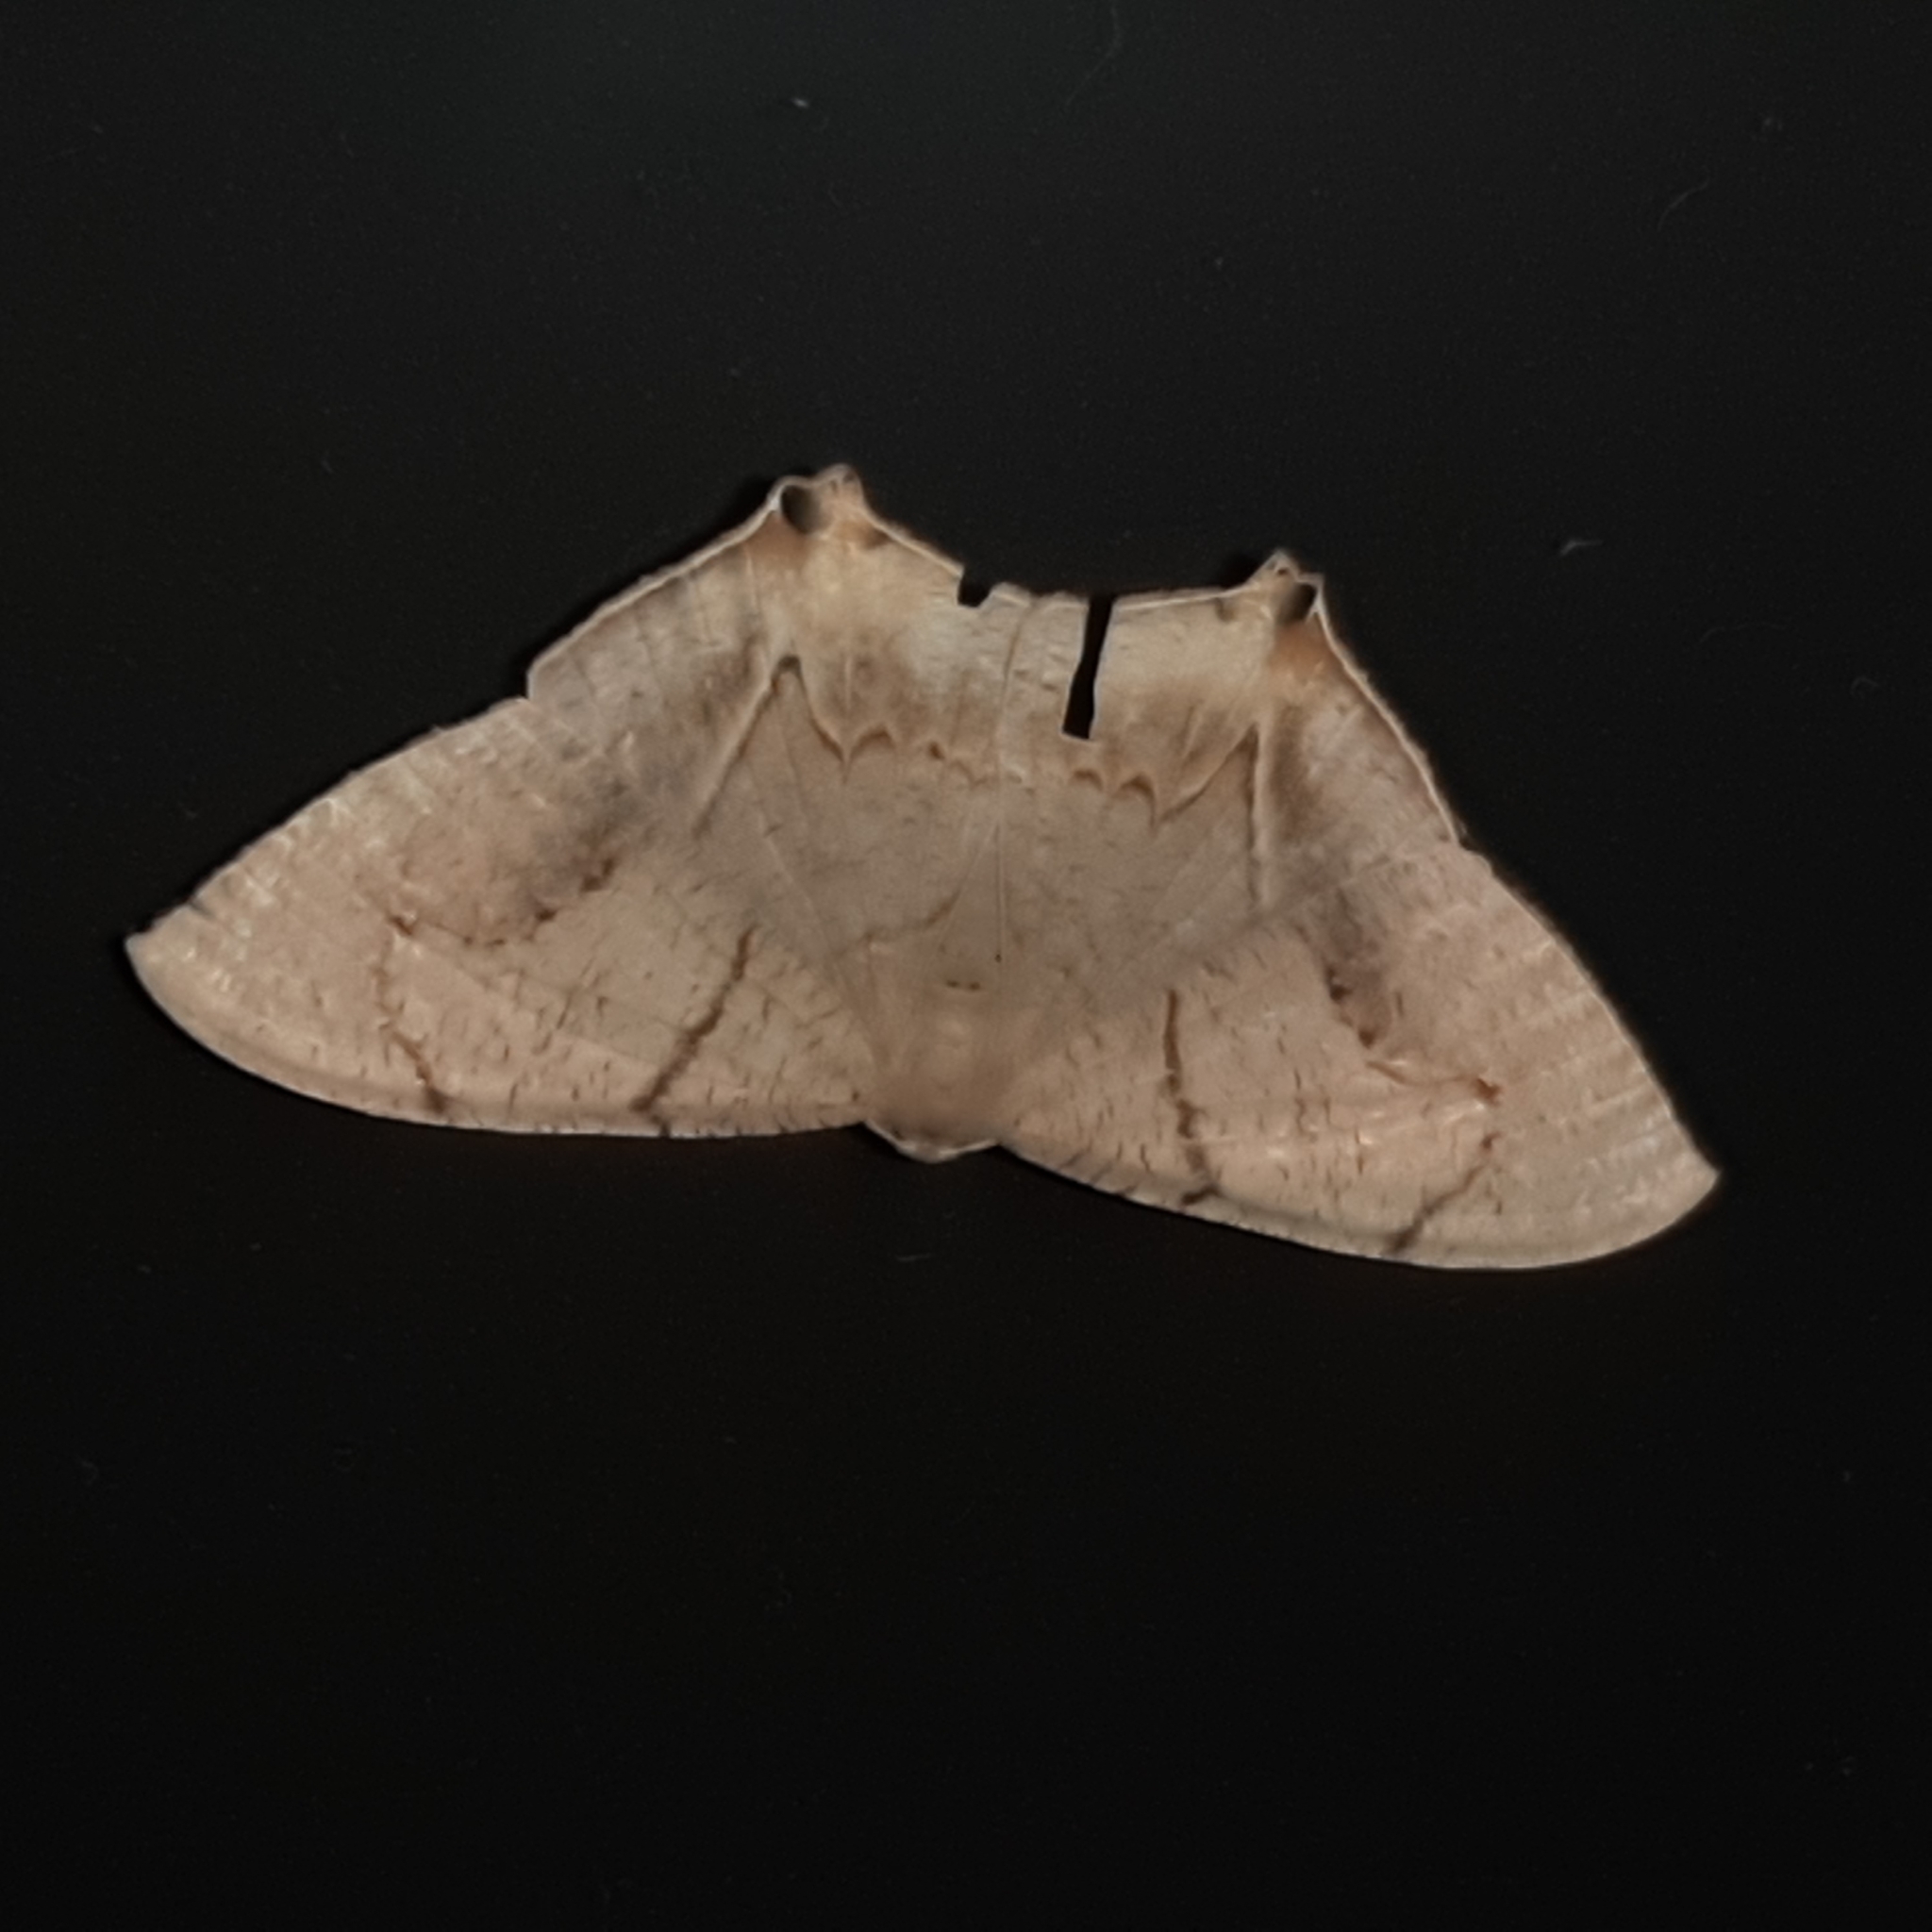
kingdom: Animalia
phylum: Arthropoda
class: Insecta
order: Lepidoptera
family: Uraniidae
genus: Psamathia
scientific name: Psamathia impunctata
